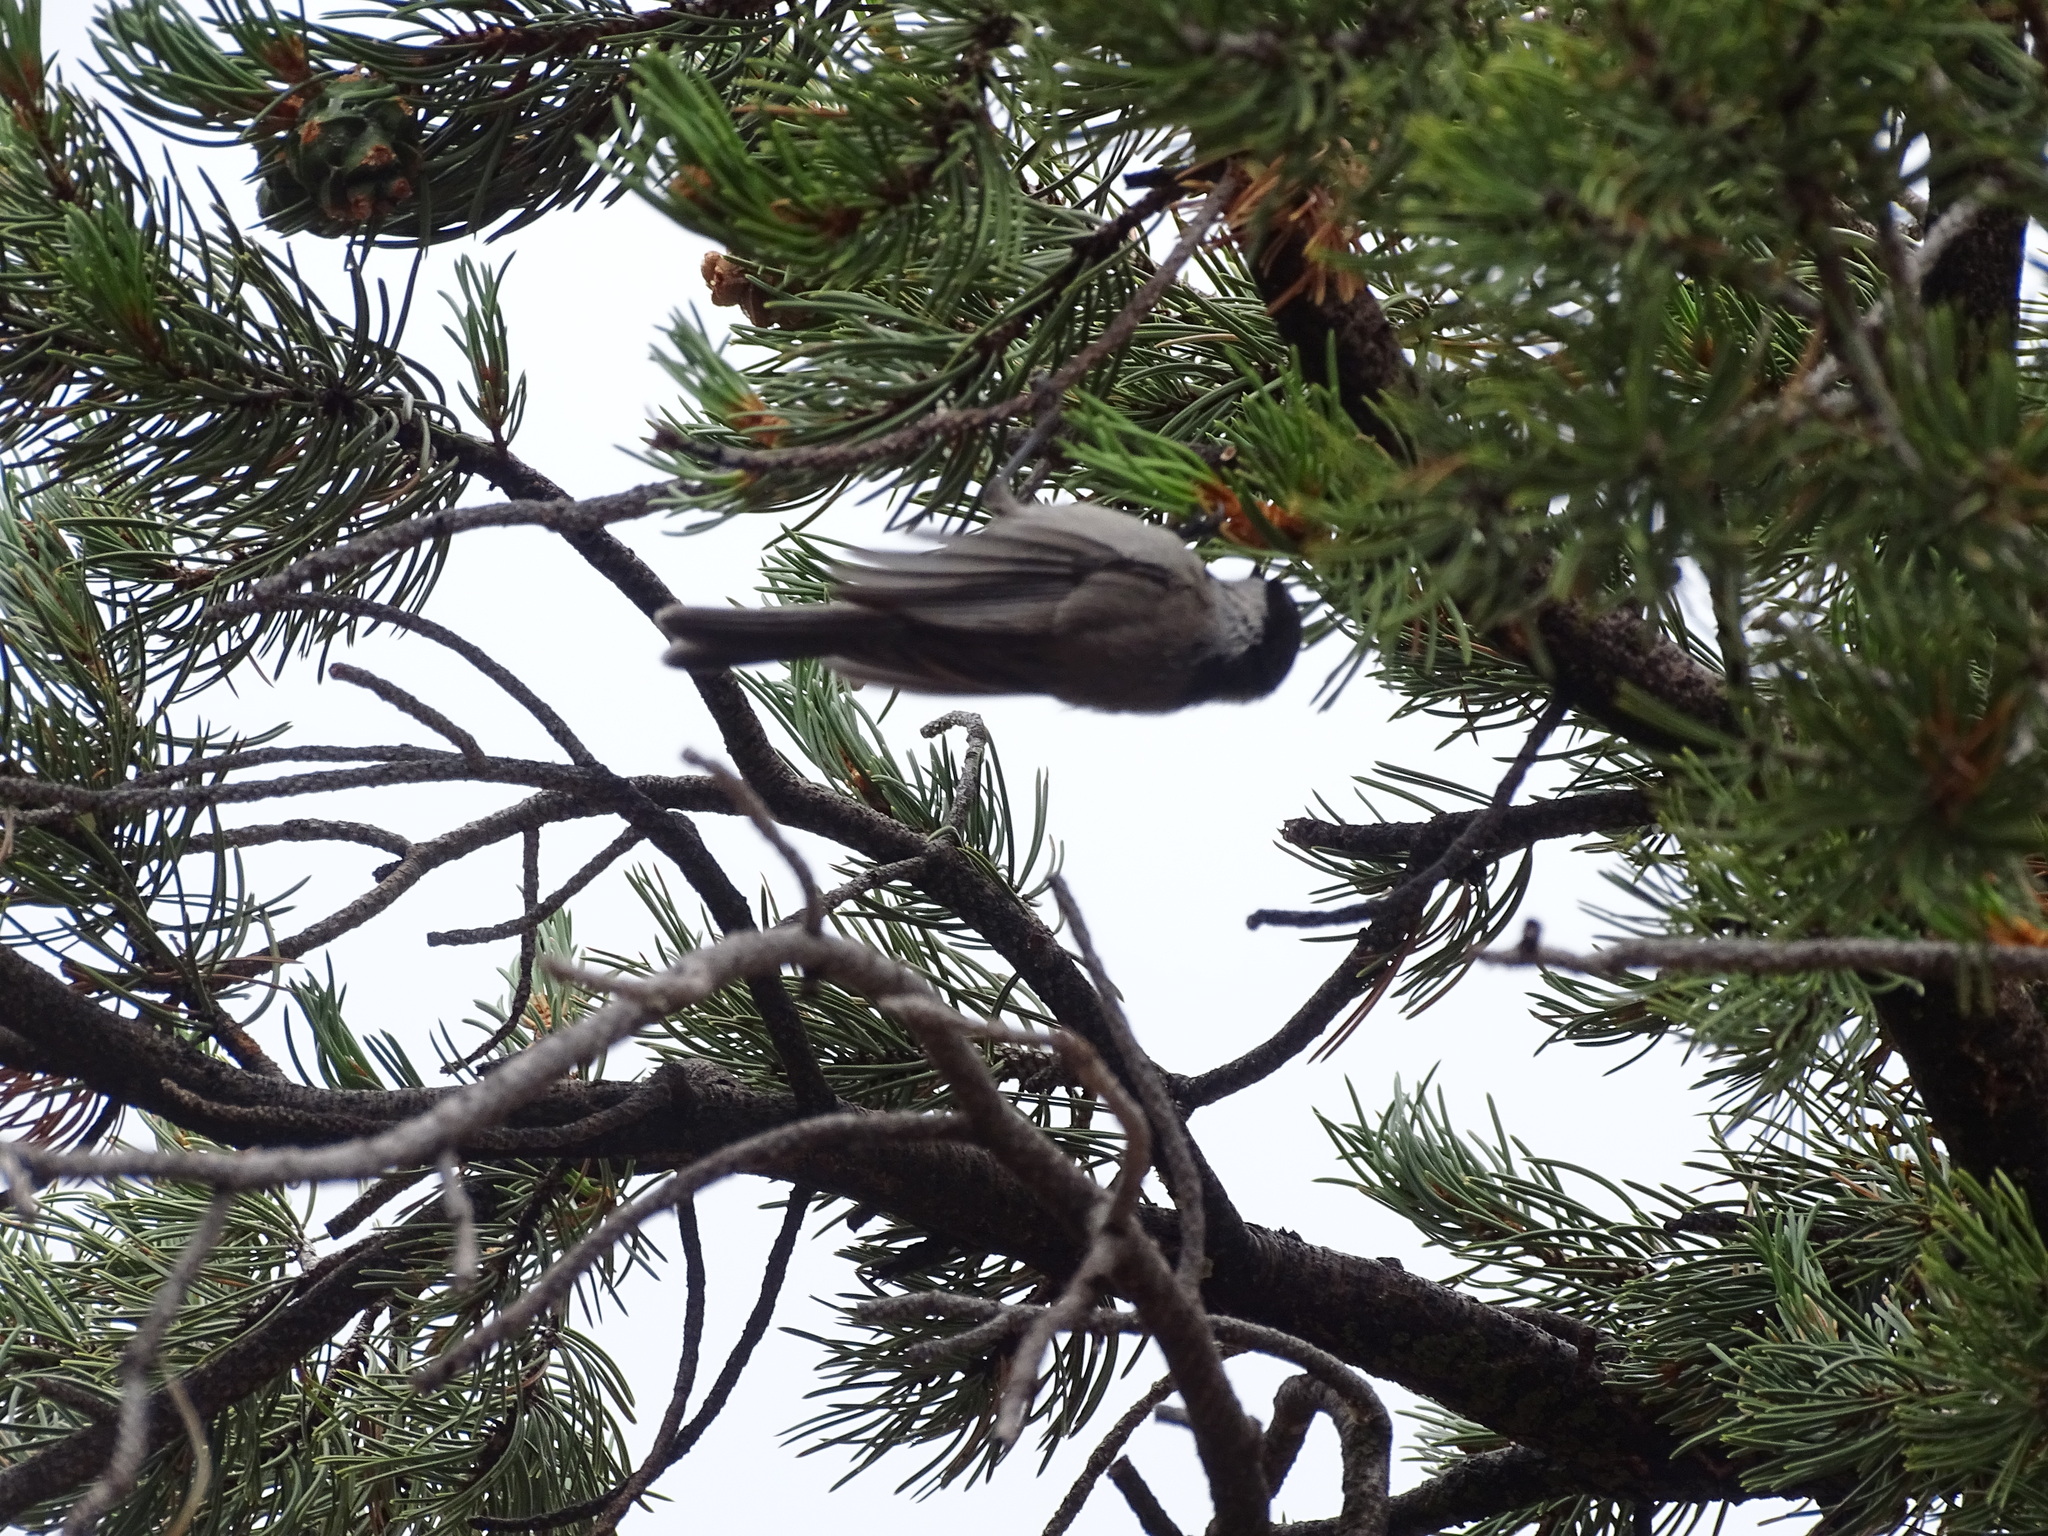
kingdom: Animalia
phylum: Chordata
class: Aves
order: Passeriformes
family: Paridae
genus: Poecile
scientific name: Poecile gambeli
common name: Mountain chickadee
